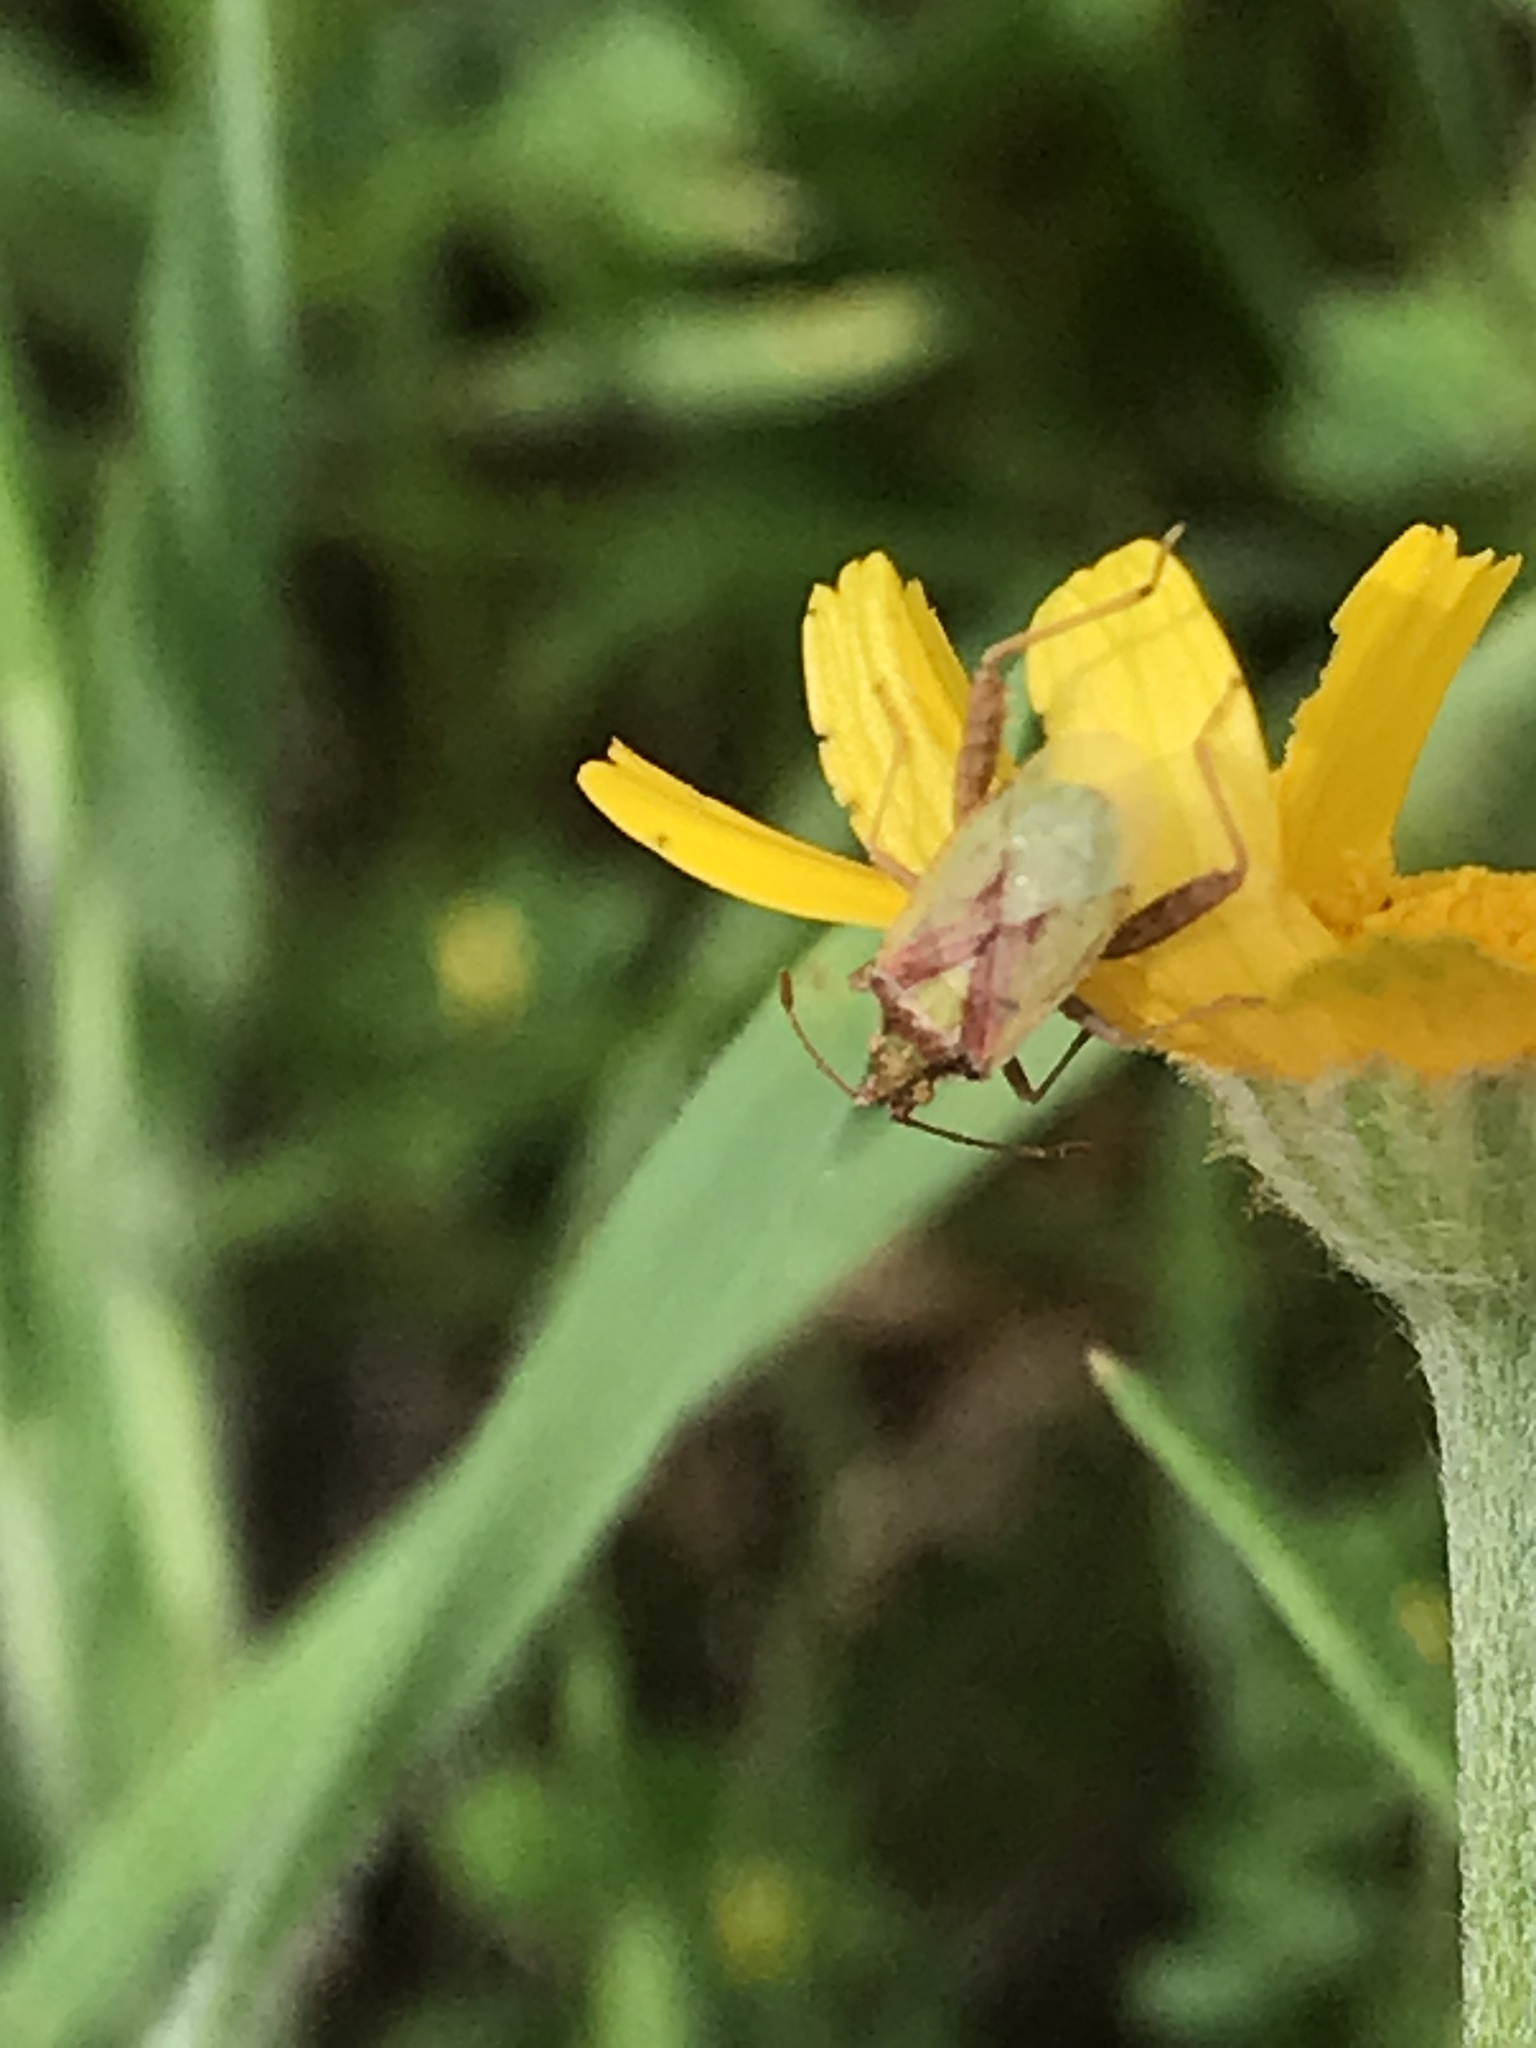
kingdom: Animalia
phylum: Arthropoda
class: Insecta
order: Hemiptera
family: Rhopalidae
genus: Harmostes
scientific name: Harmostes reflexulus
